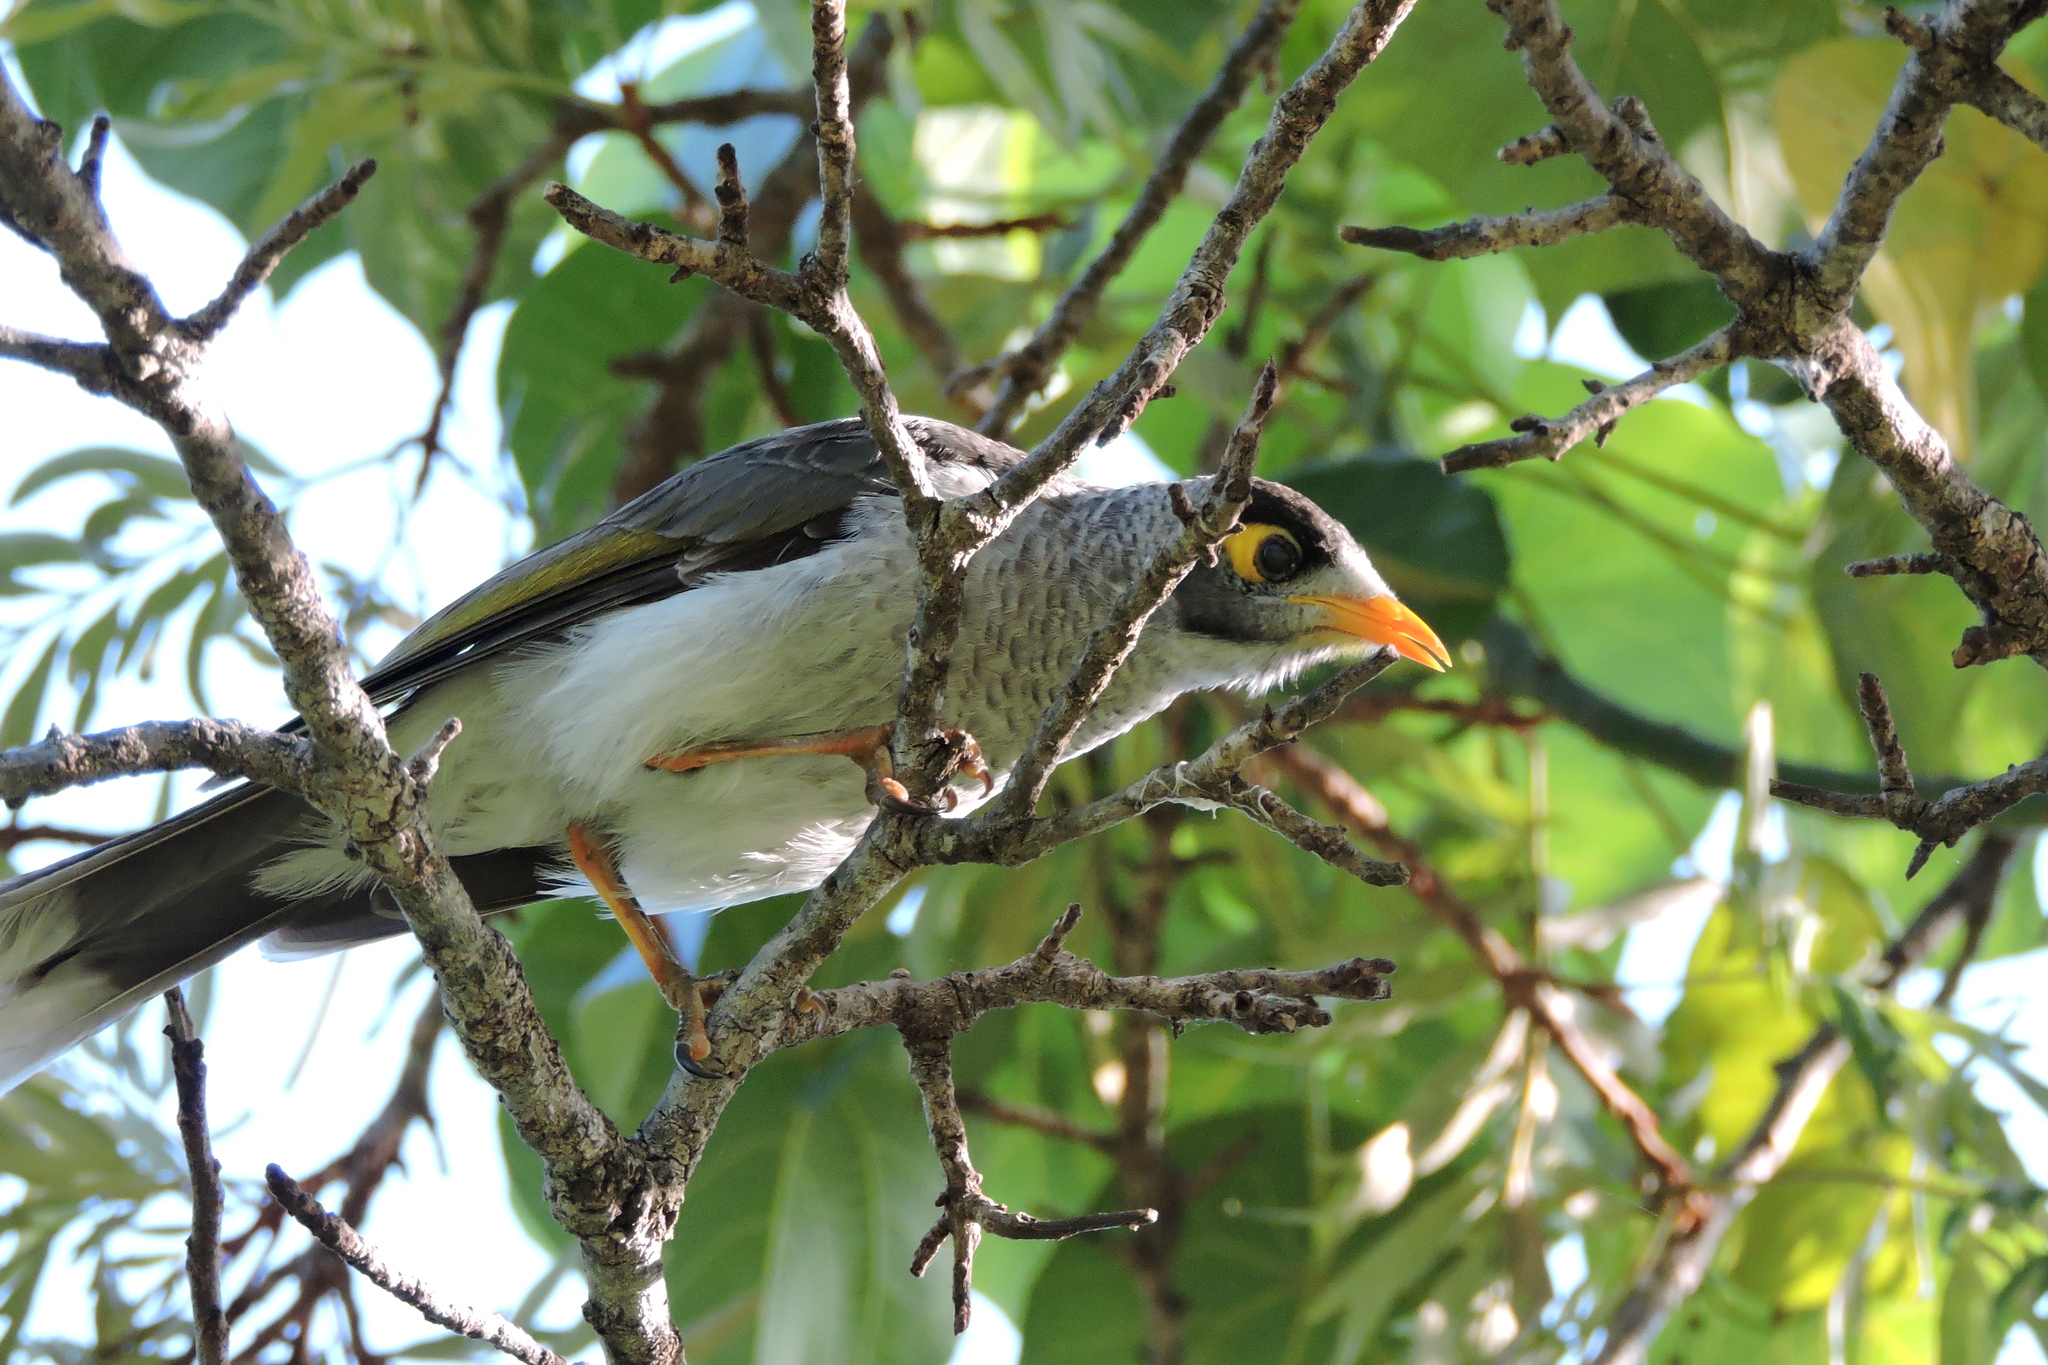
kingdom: Animalia
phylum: Chordata
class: Aves
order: Passeriformes
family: Meliphagidae
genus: Manorina
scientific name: Manorina melanocephala
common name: Noisy miner
